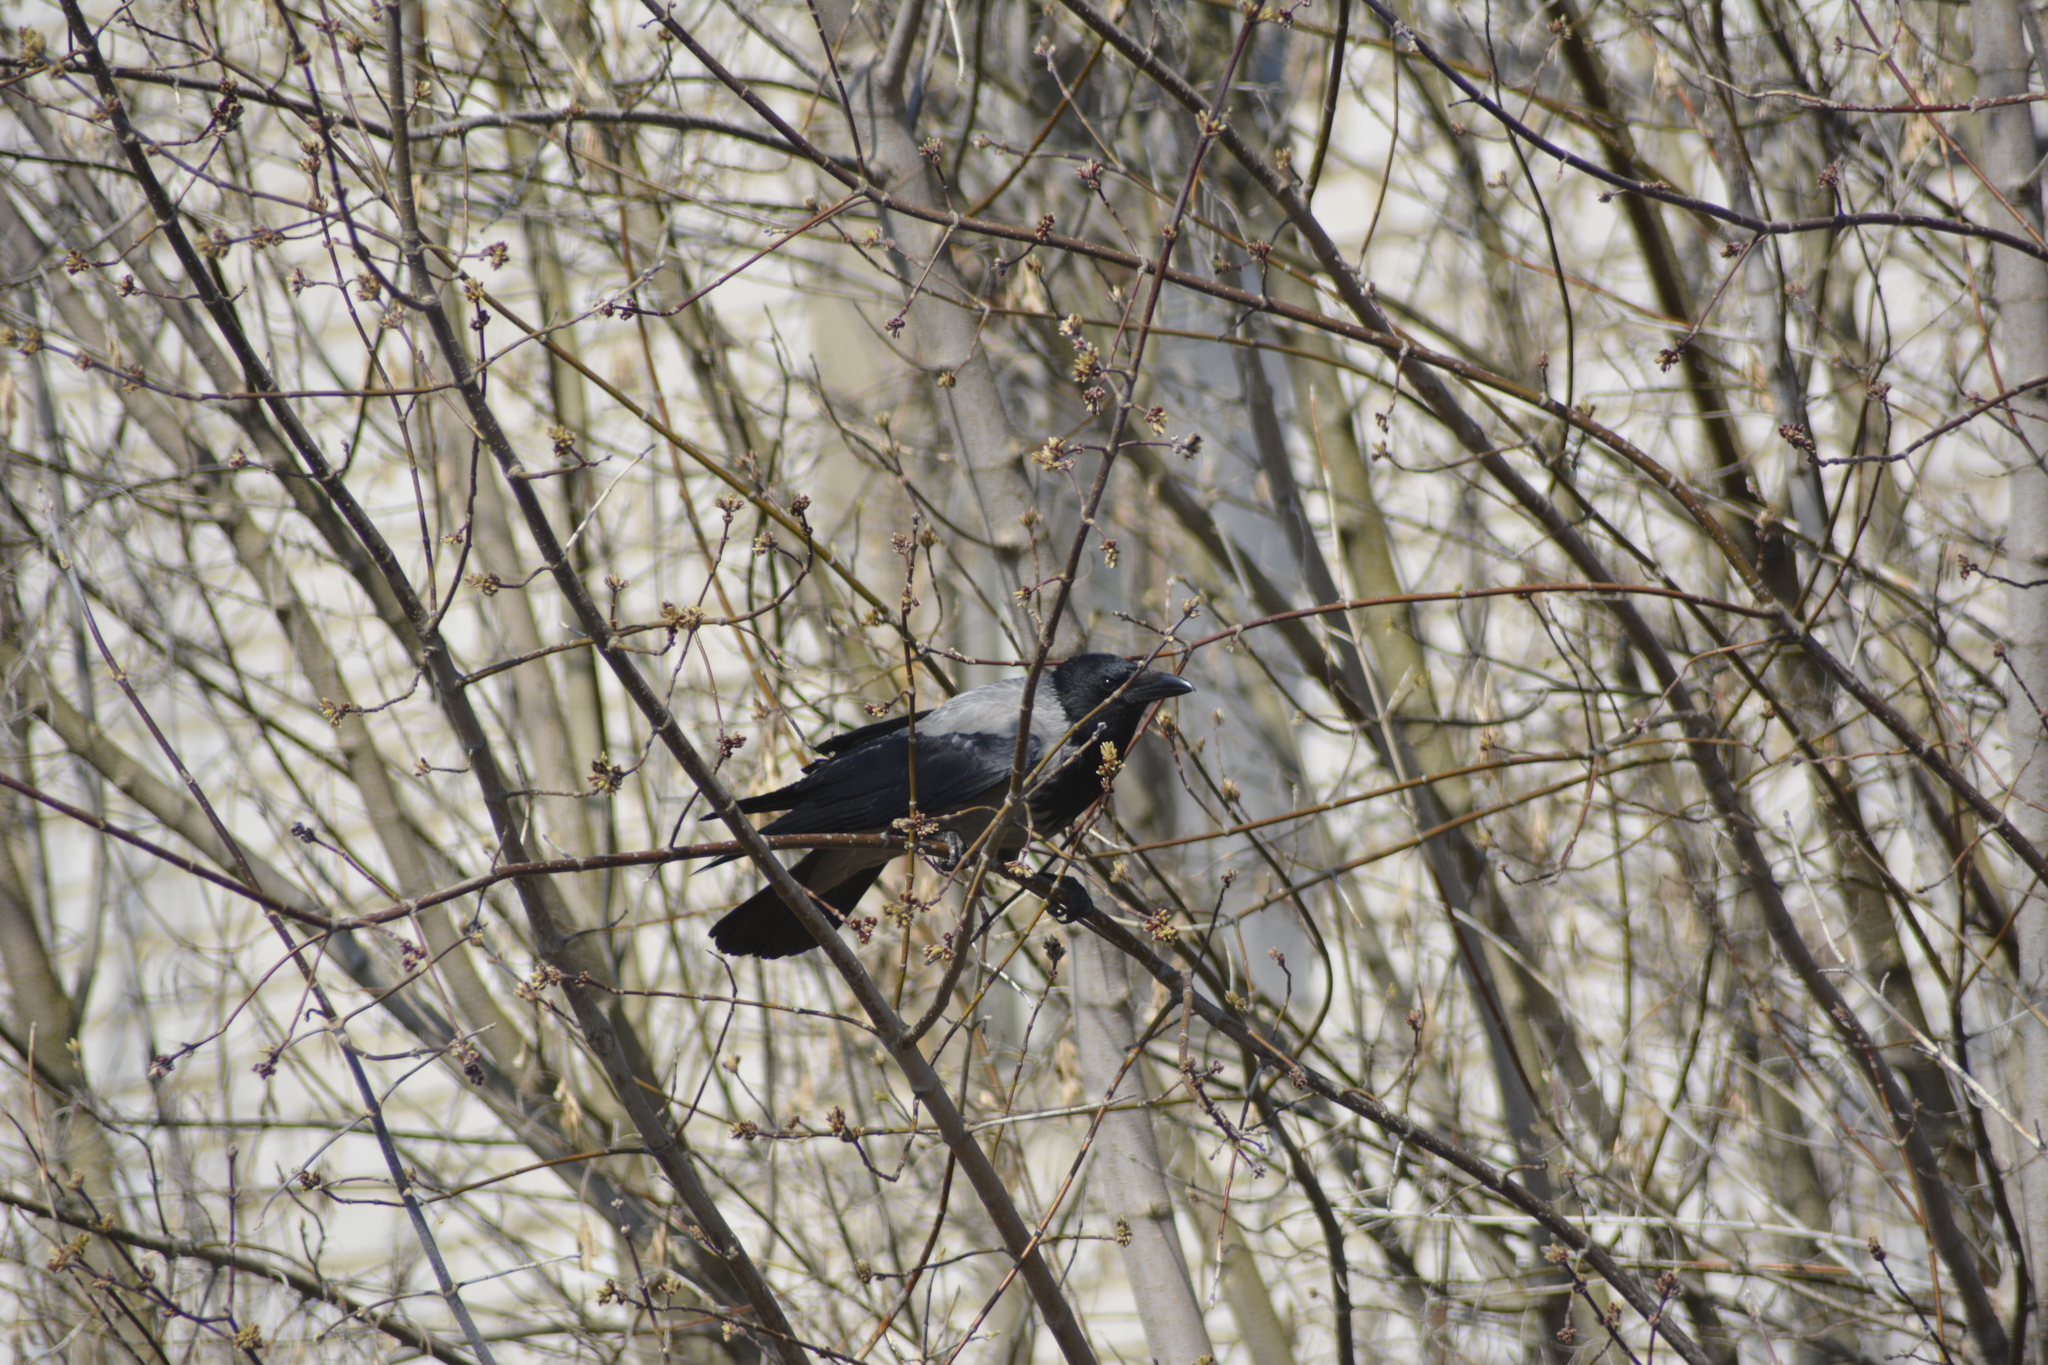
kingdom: Animalia
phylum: Chordata
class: Aves
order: Passeriformes
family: Corvidae
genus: Corvus
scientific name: Corvus cornix
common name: Hooded crow
